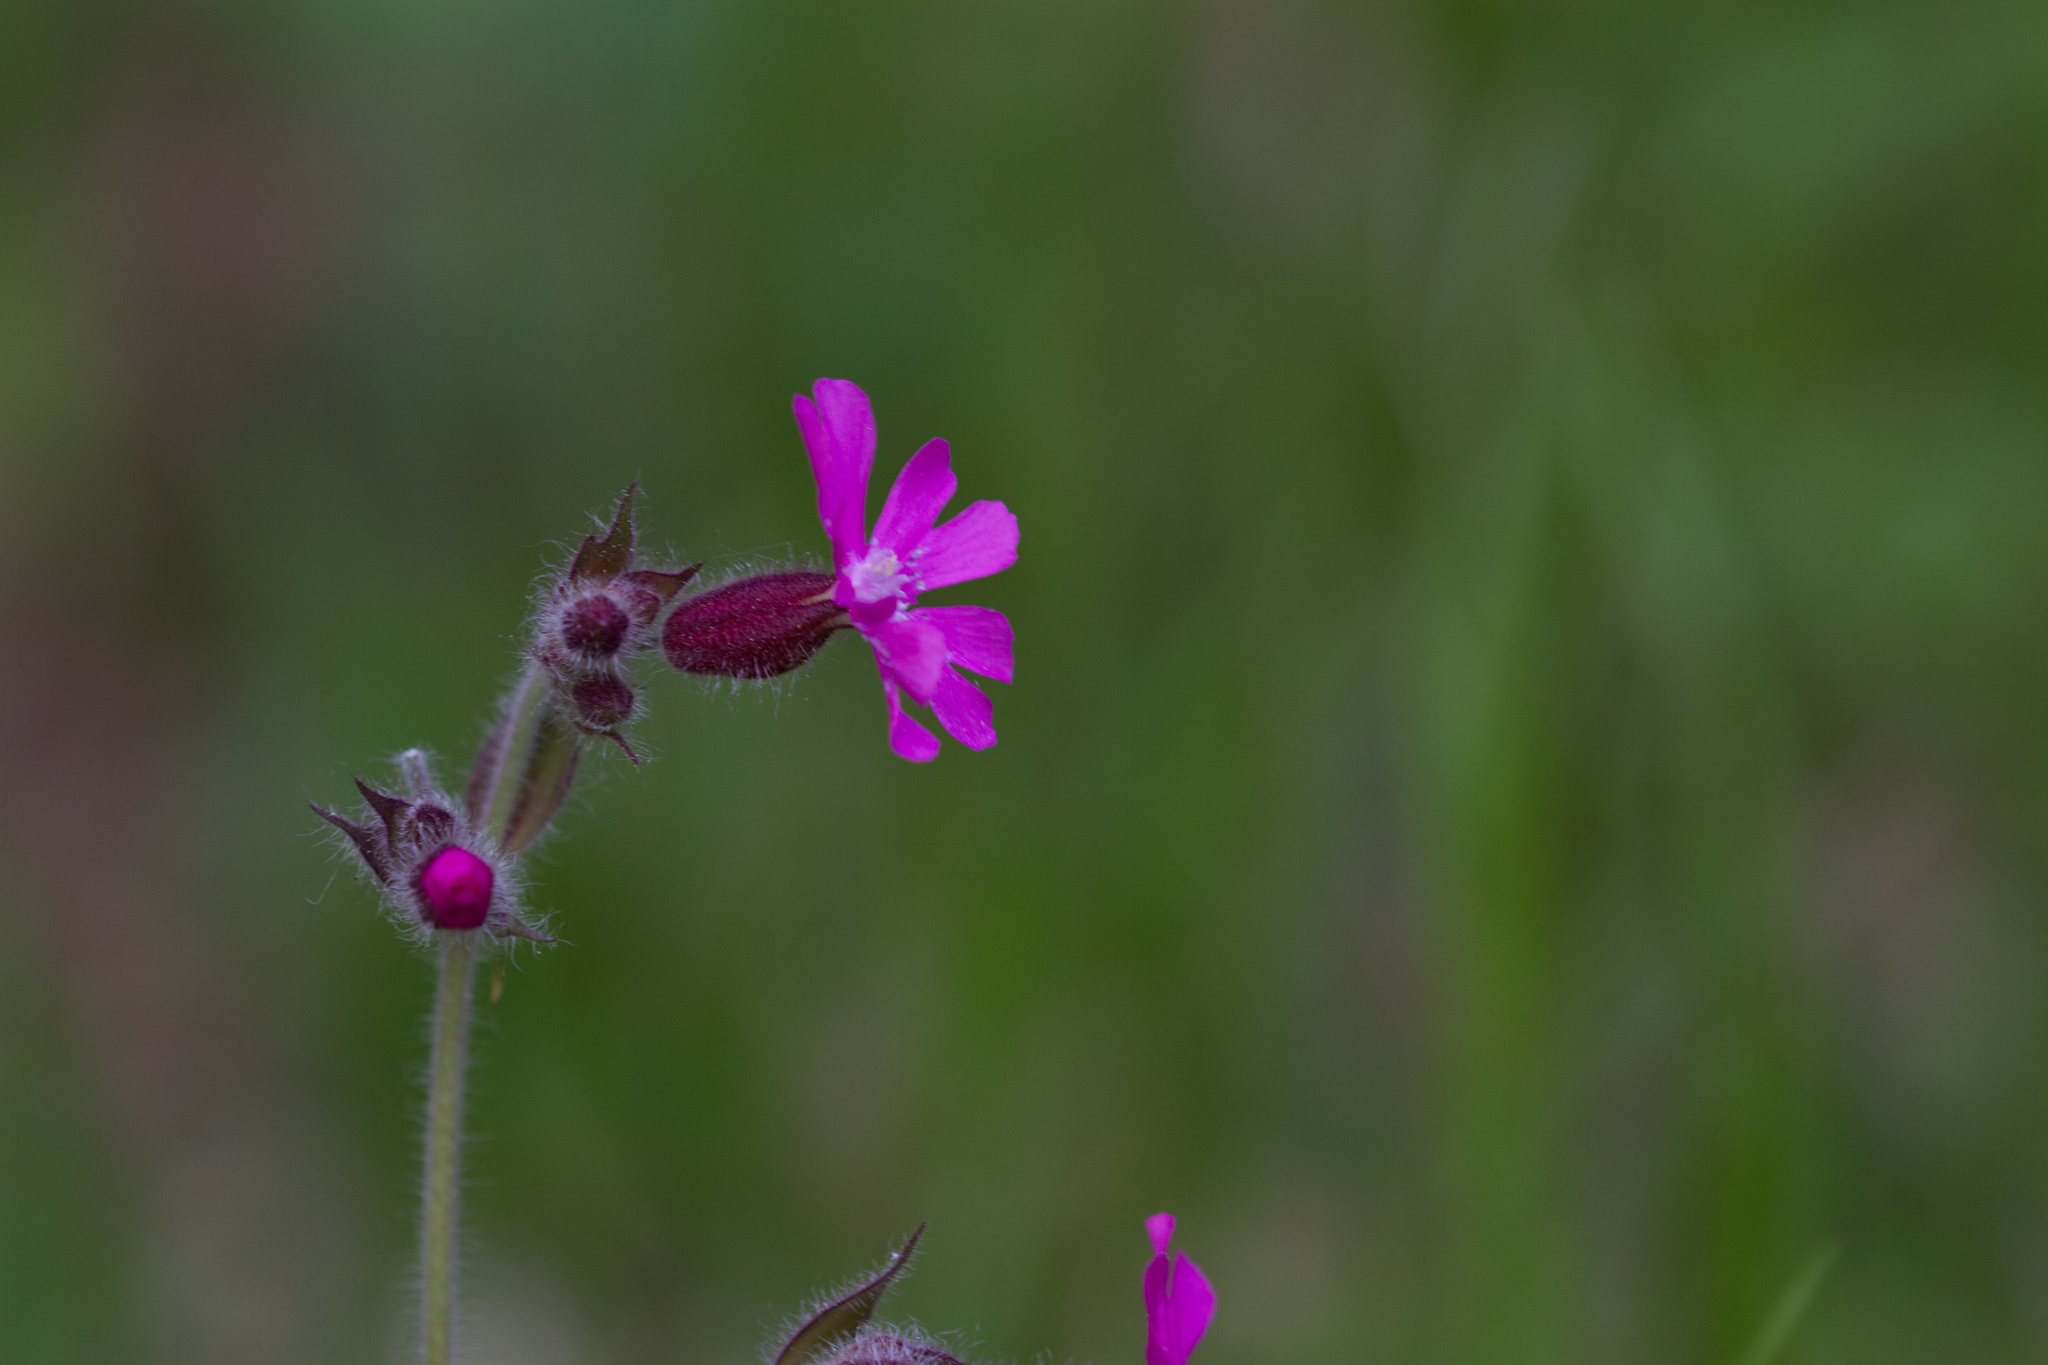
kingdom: Plantae
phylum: Tracheophyta
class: Magnoliopsida
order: Caryophyllales
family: Caryophyllaceae
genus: Silene
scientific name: Silene dioica
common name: Red campion
